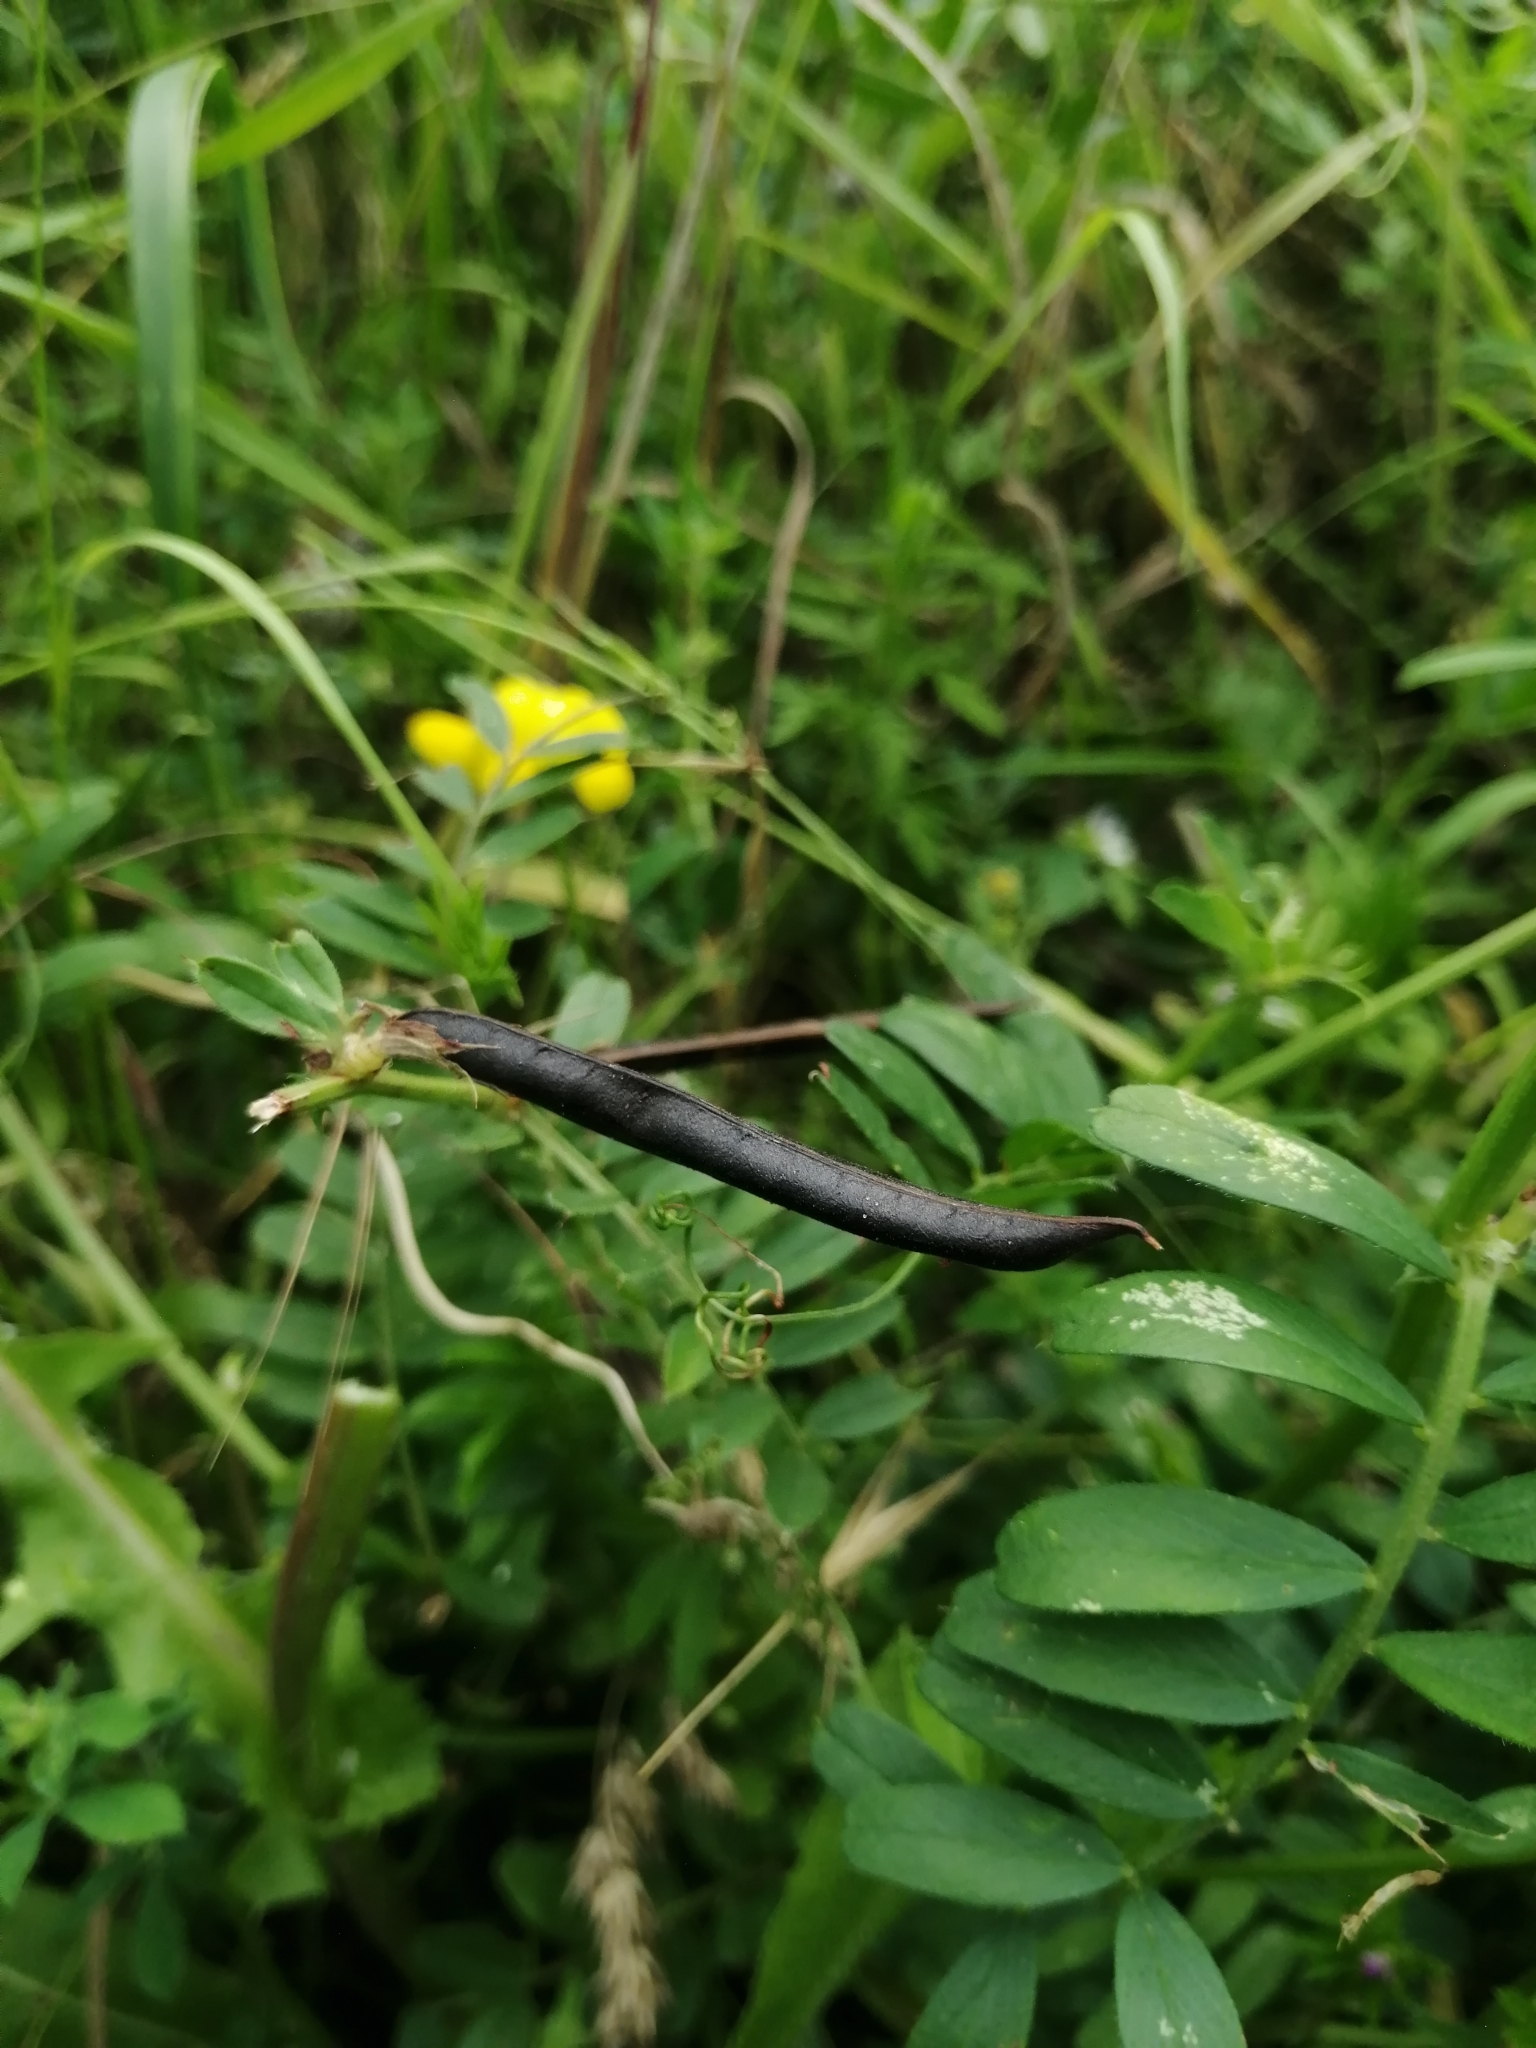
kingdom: Plantae
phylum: Tracheophyta
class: Magnoliopsida
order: Fabales
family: Fabaceae
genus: Lotus
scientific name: Lotus corniculatus
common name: Common bird's-foot-trefoil
